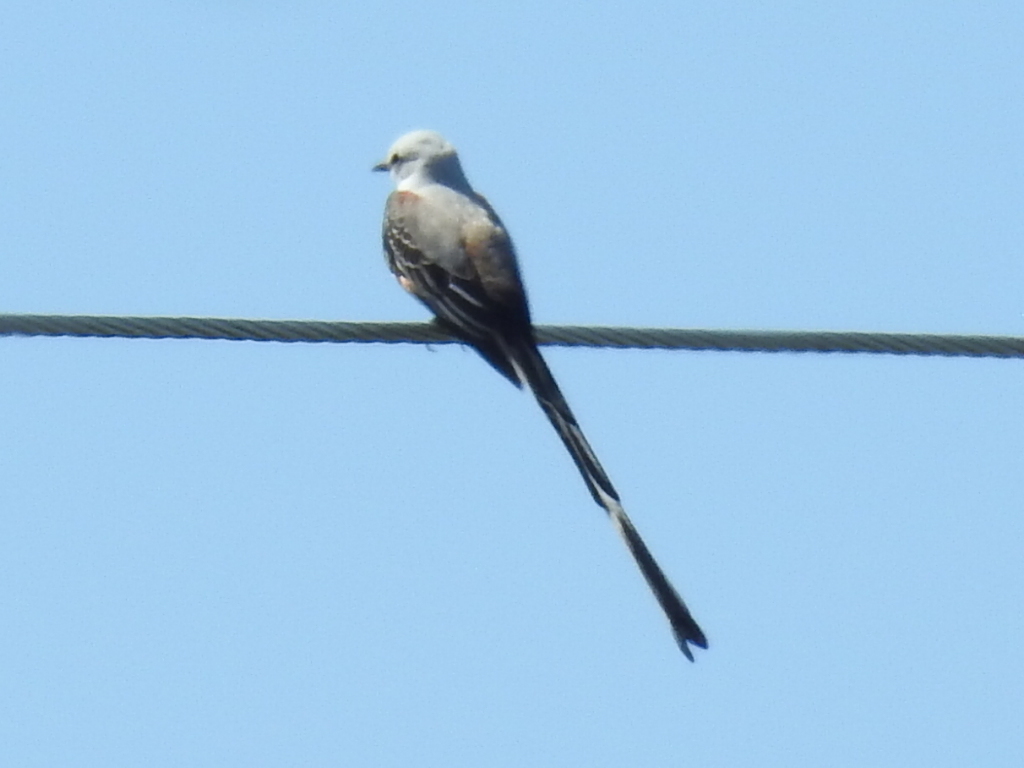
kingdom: Animalia
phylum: Chordata
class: Aves
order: Passeriformes
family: Tyrannidae
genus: Tyrannus
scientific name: Tyrannus forficatus
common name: Scissor-tailed flycatcher
